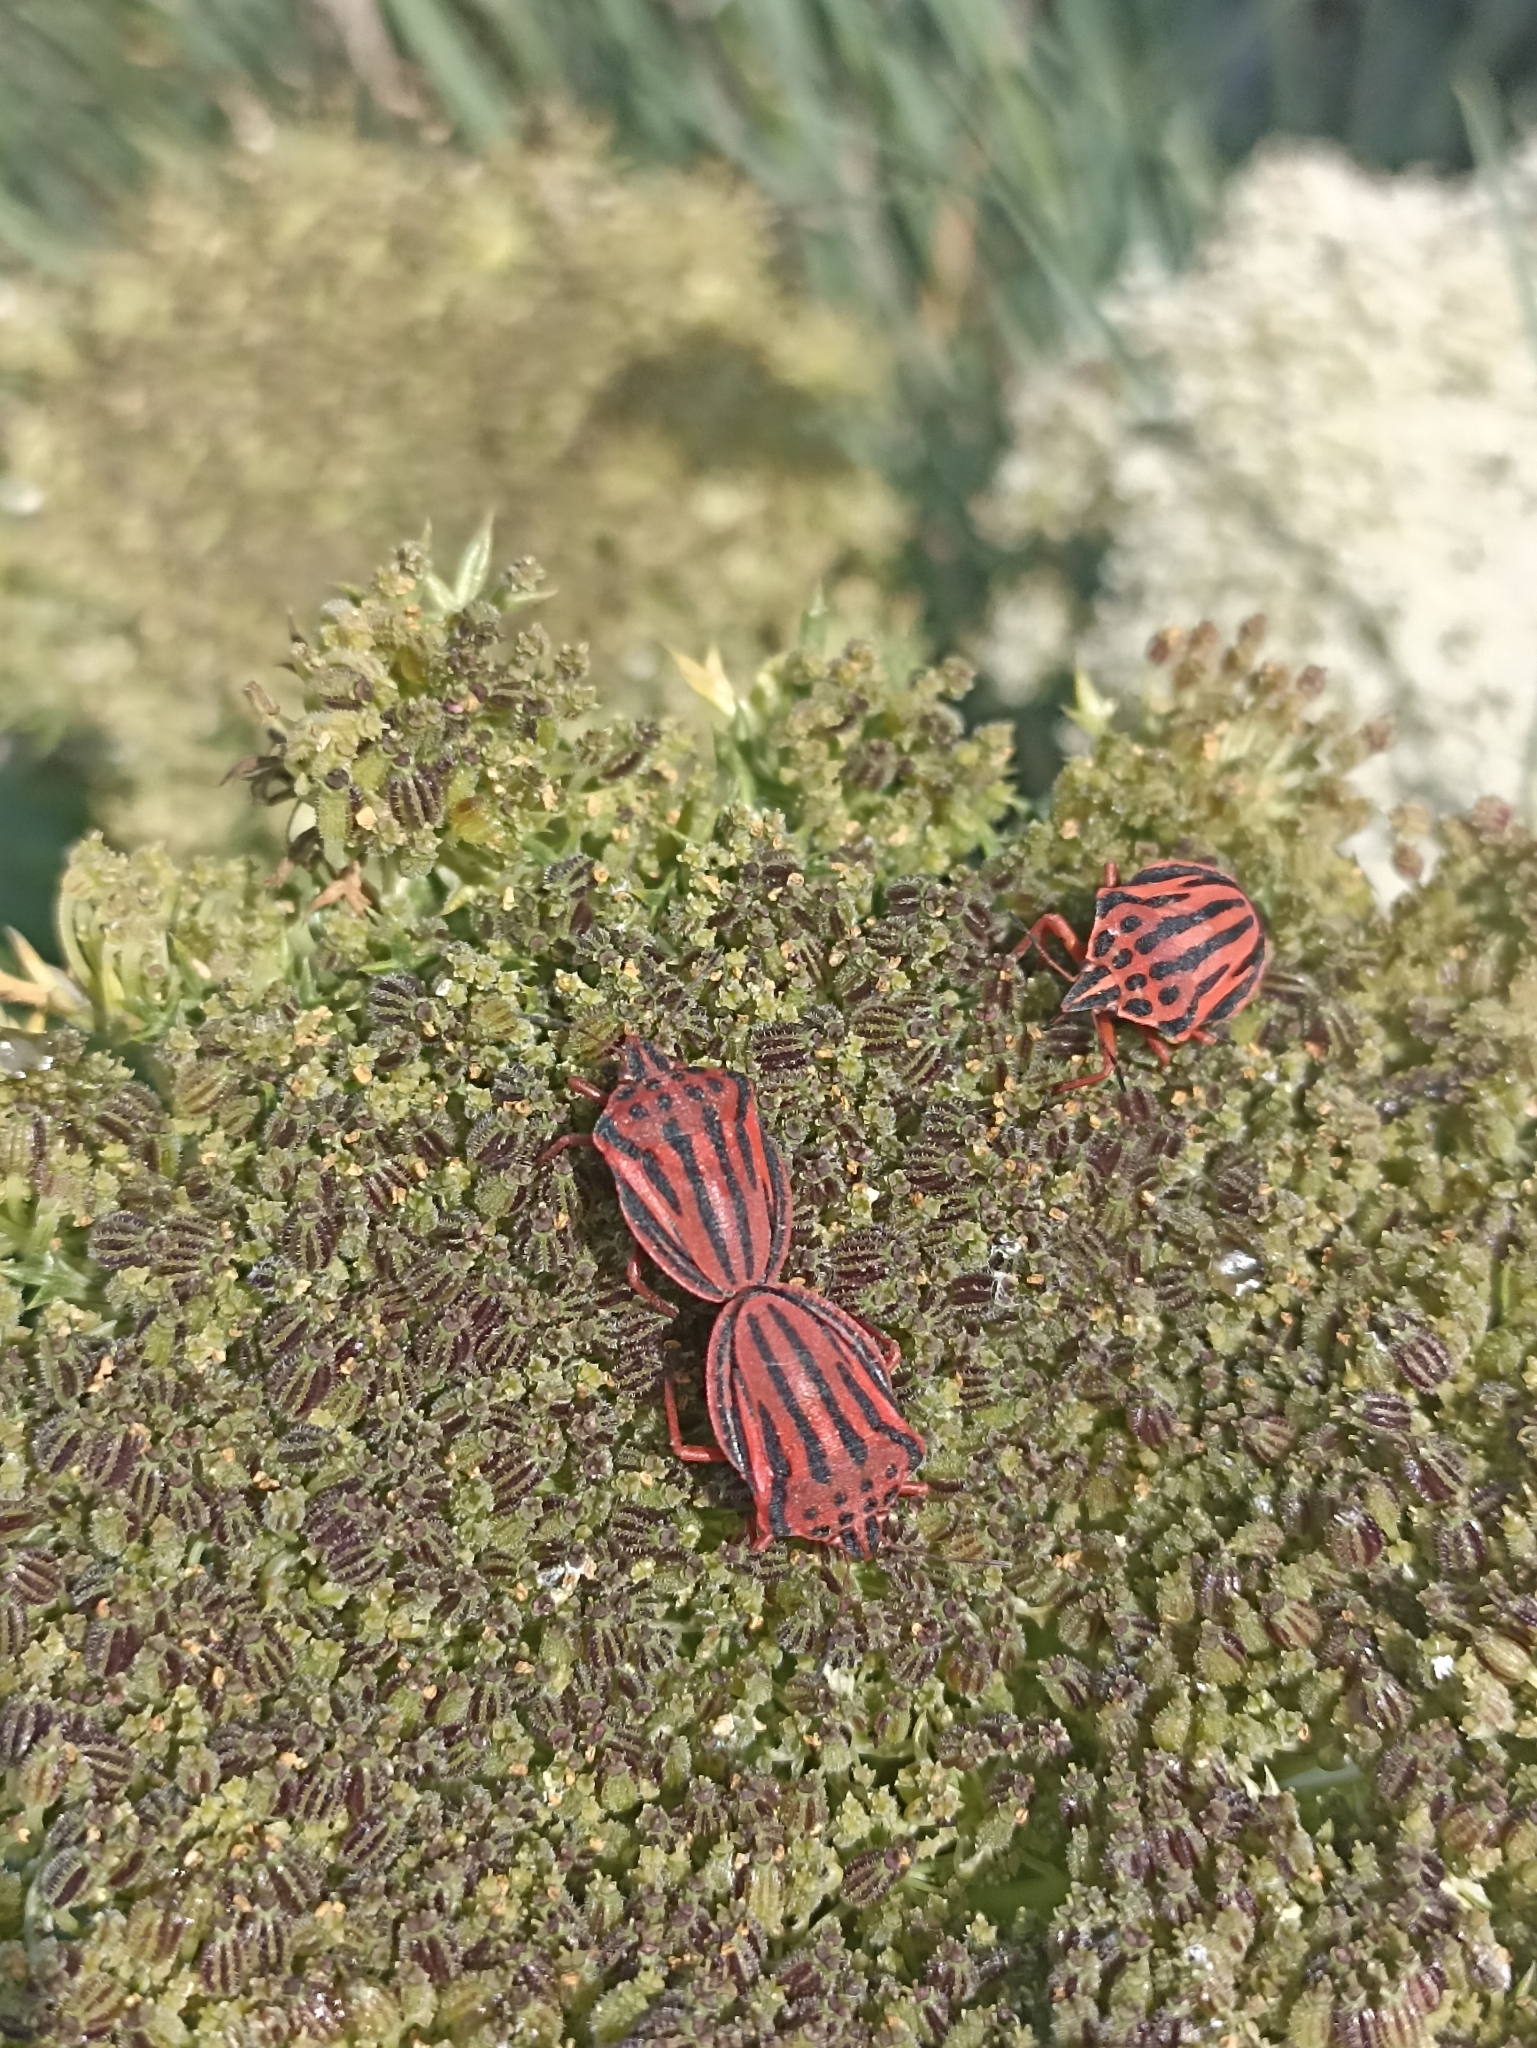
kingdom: Animalia
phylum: Arthropoda
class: Insecta
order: Hemiptera
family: Pentatomidae
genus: Graphosoma
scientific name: Graphosoma semipunctatum
